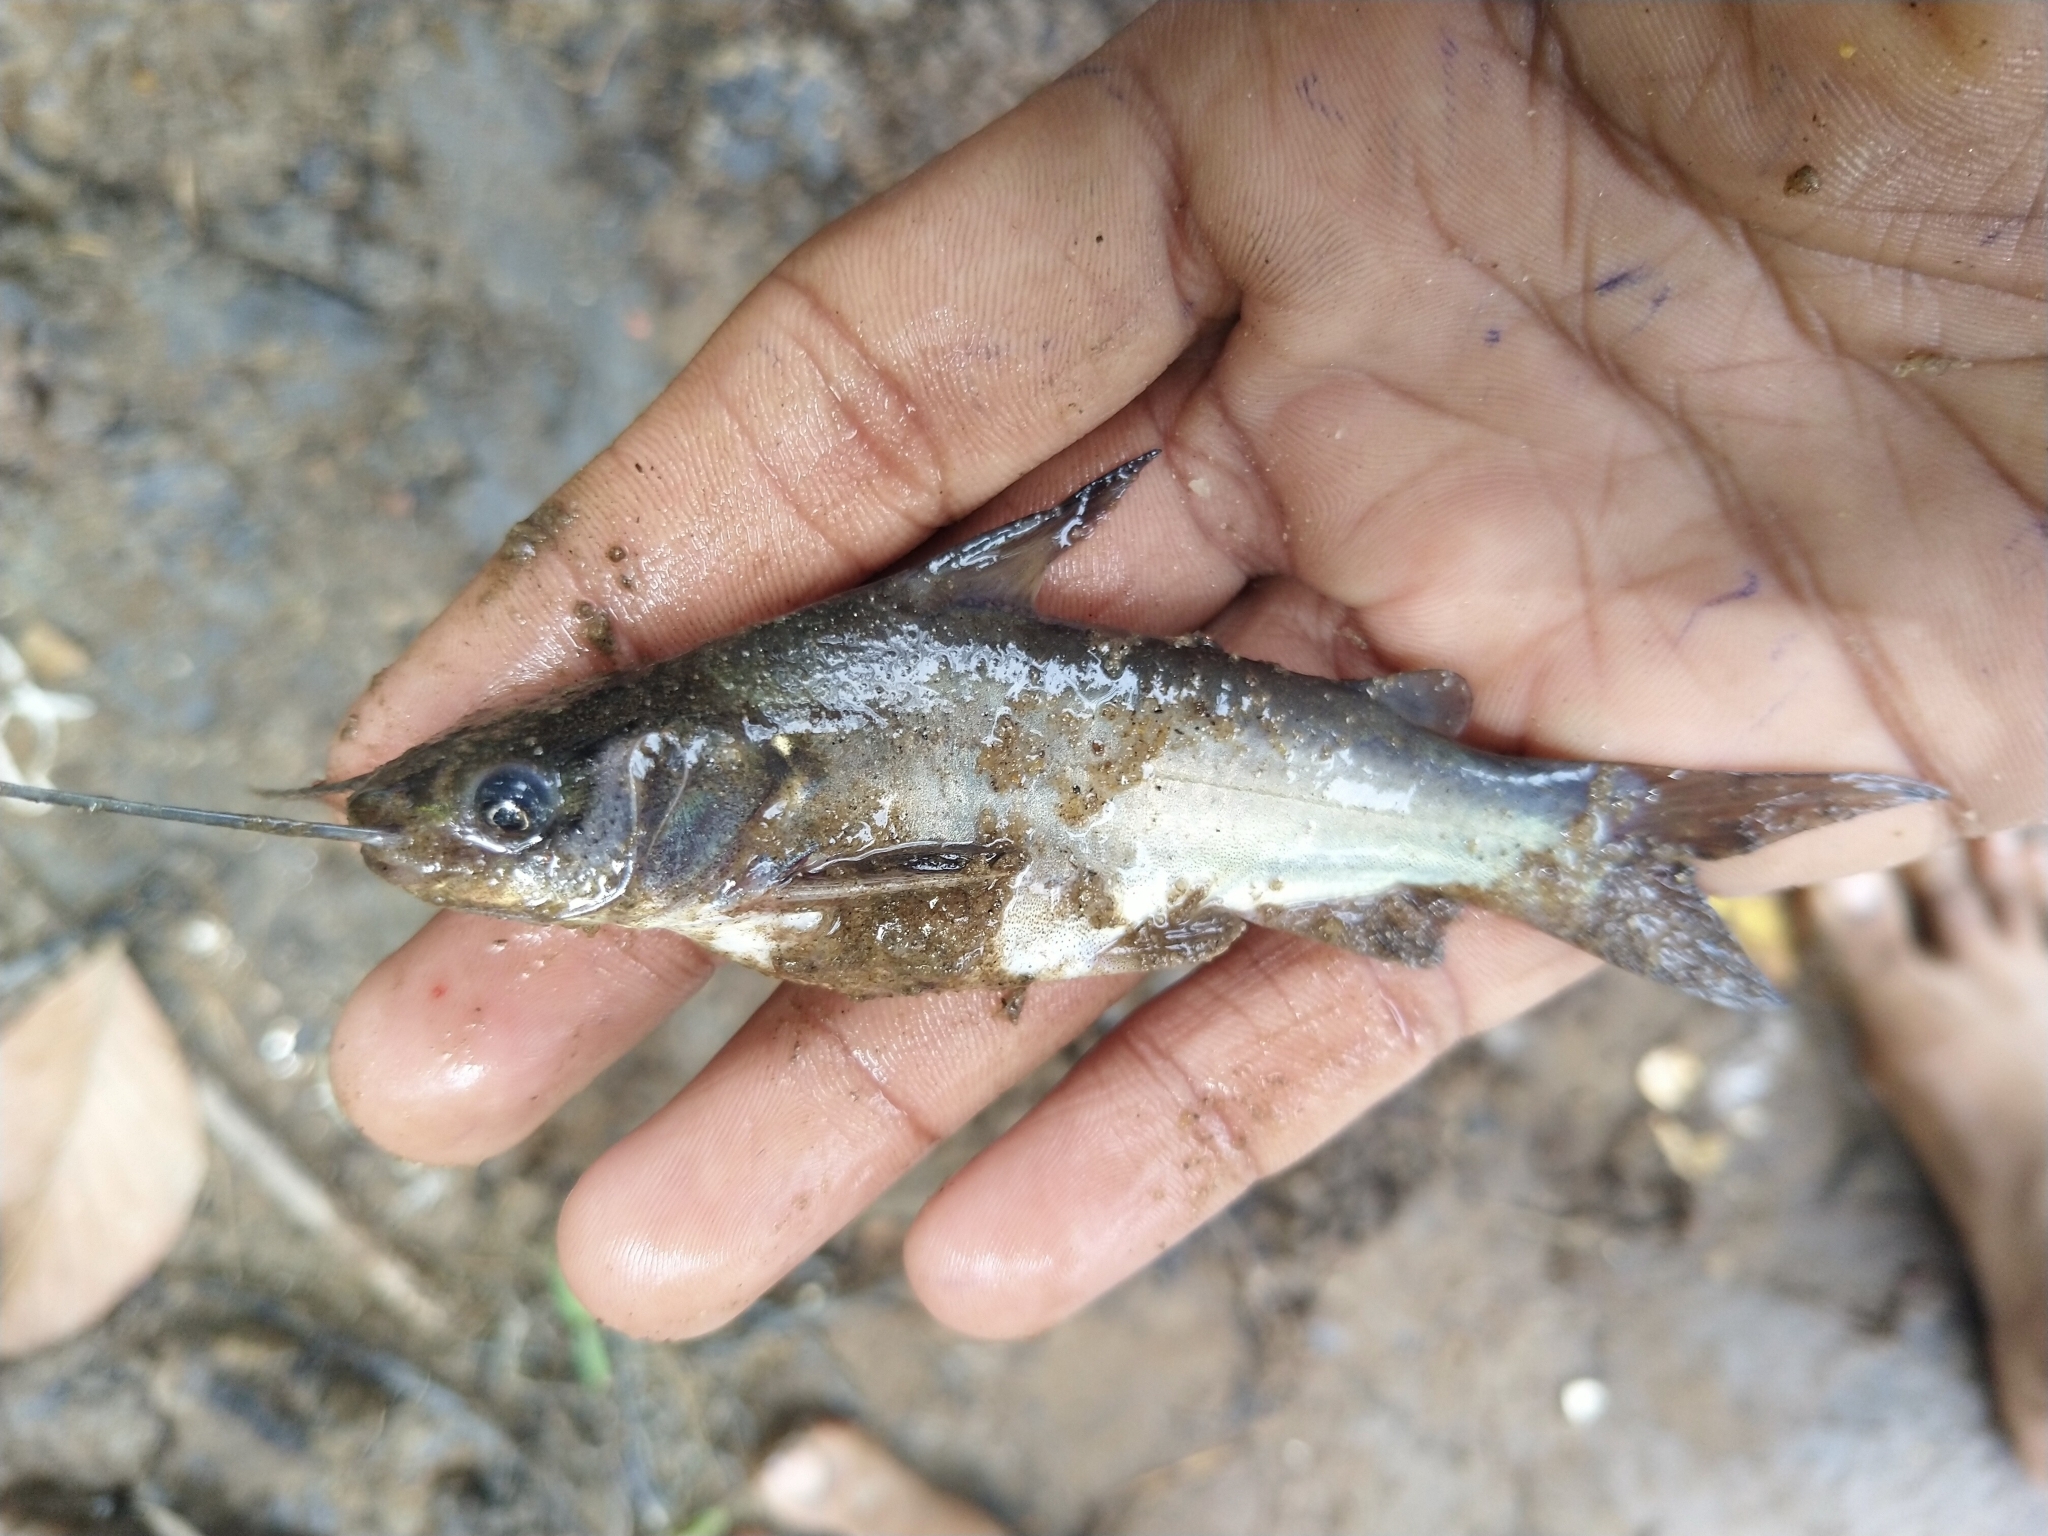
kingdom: Animalia
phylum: Chordata
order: Siluriformes
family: Bagridae
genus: Mystus
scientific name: Mystus gulio
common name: Long whiskers catfish
